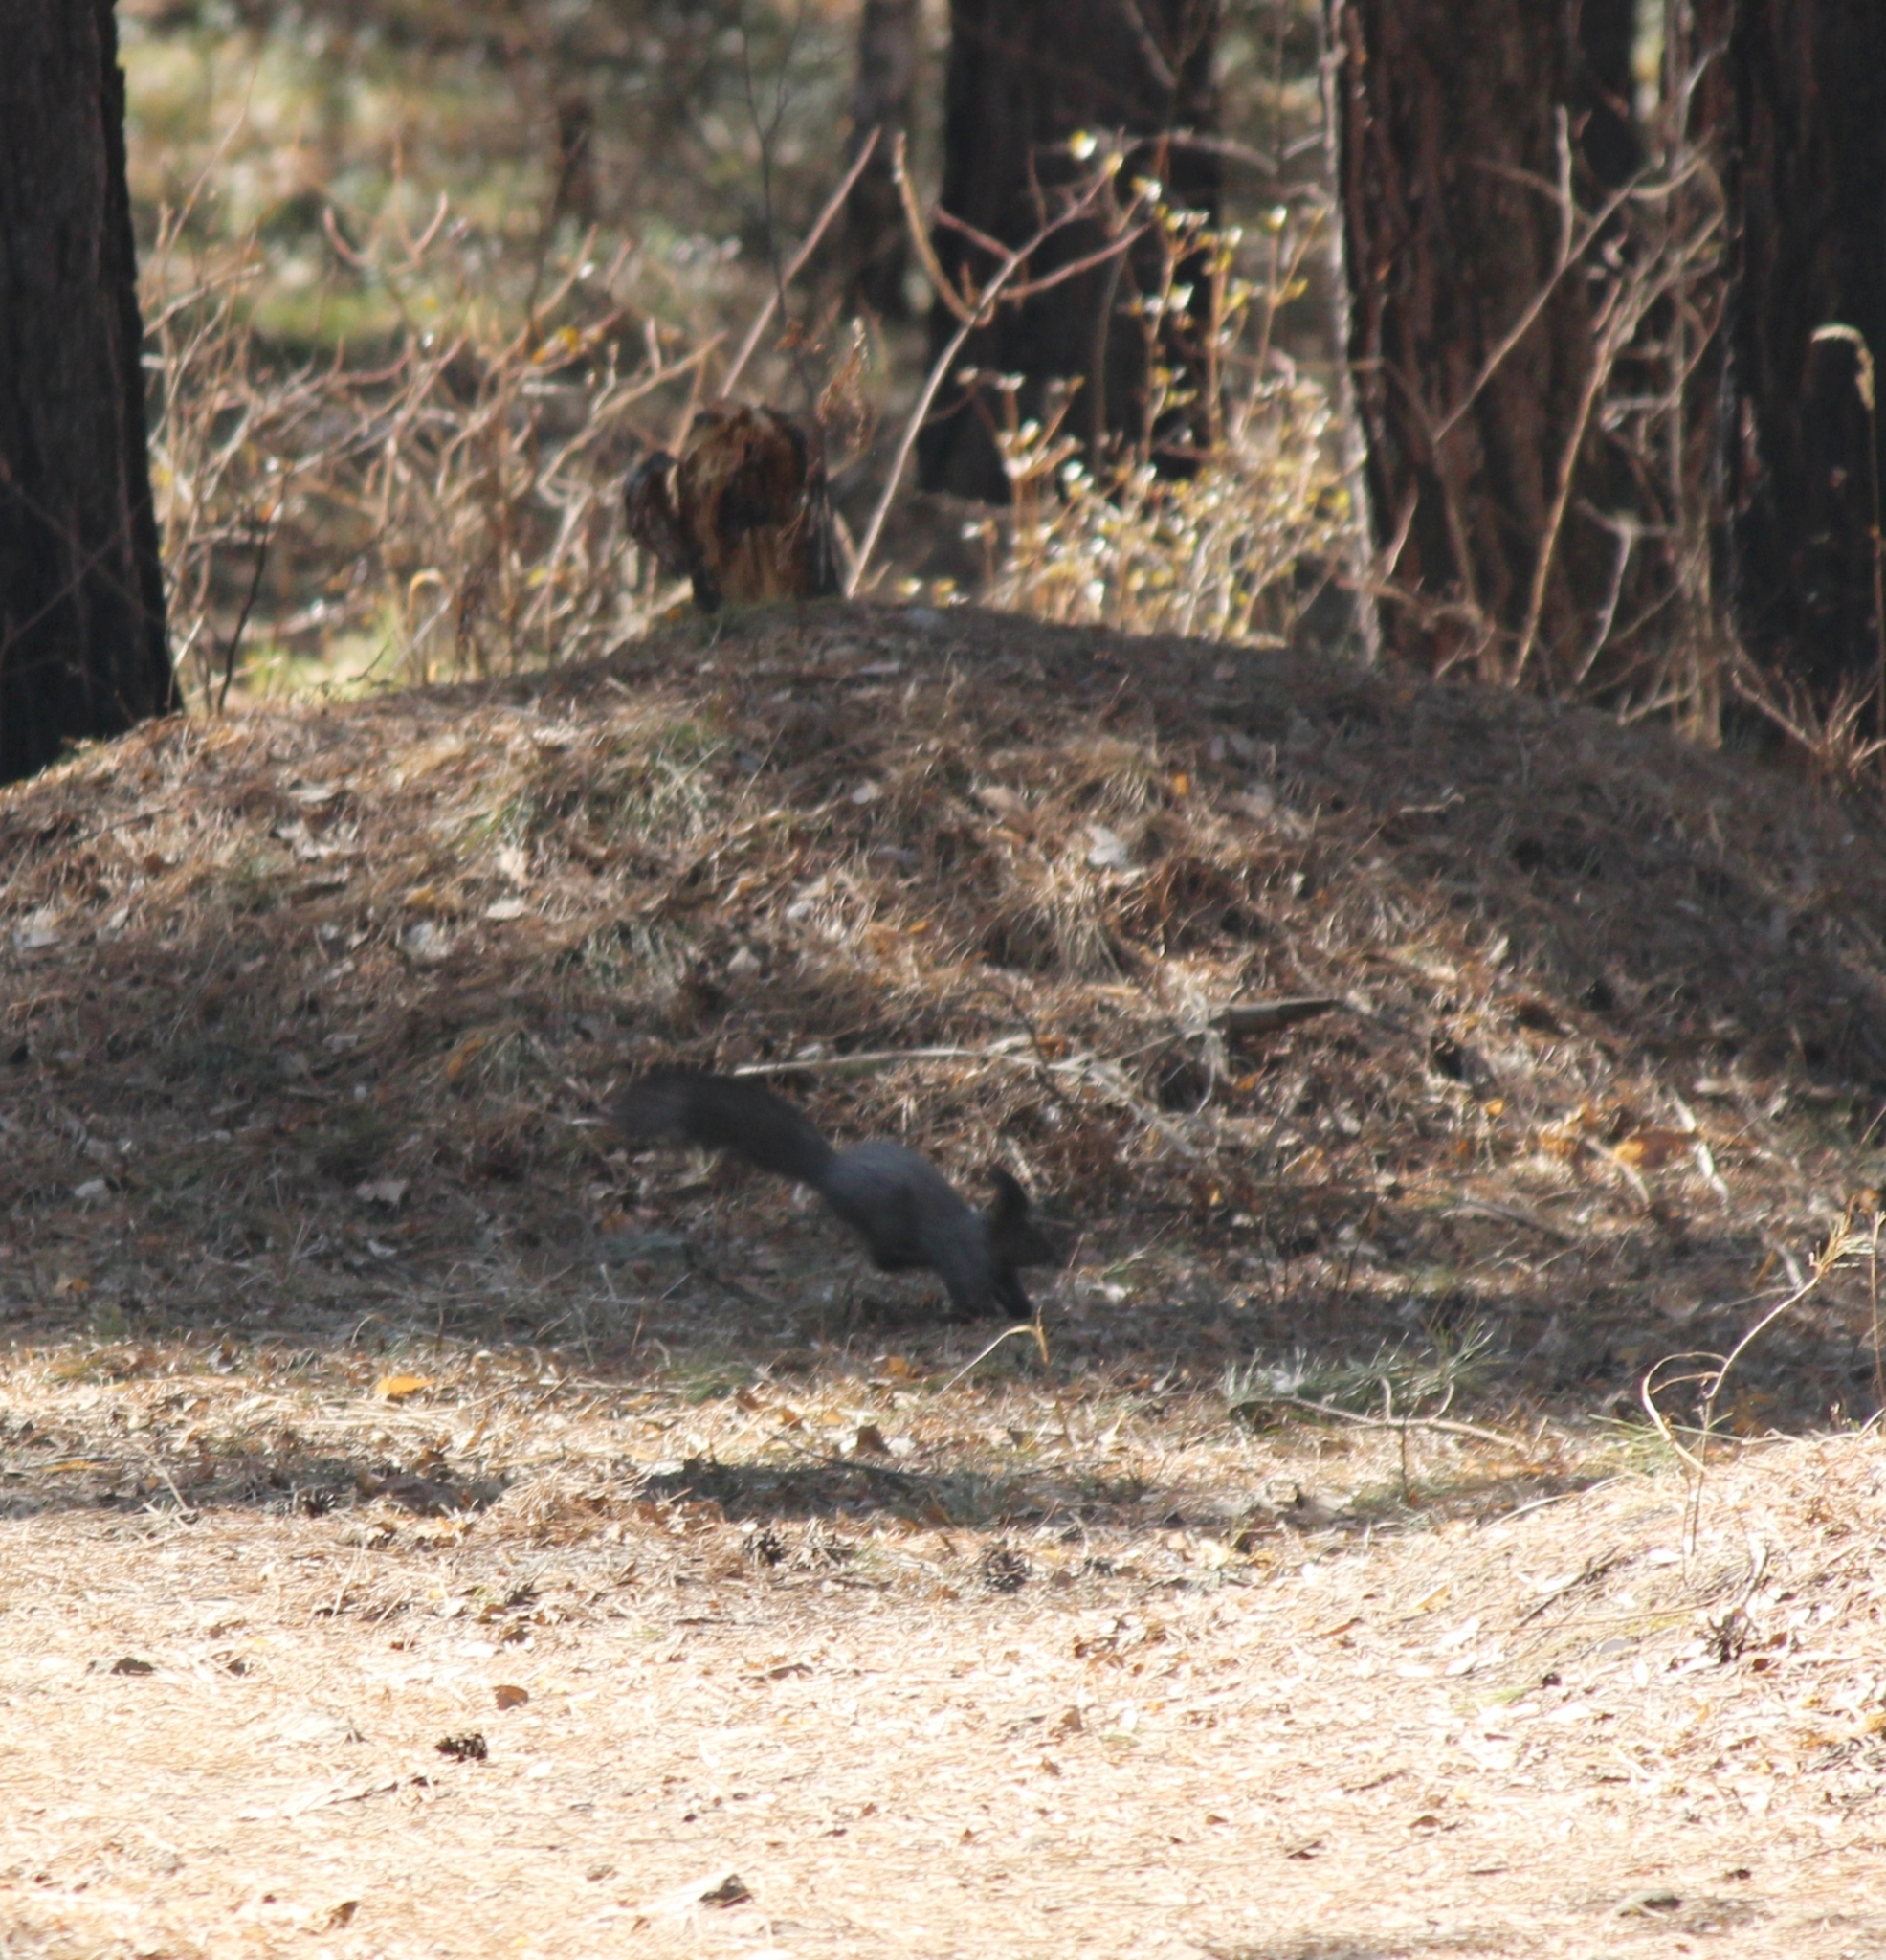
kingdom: Animalia
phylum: Chordata
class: Mammalia
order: Rodentia
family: Sciuridae
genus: Sciurus
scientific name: Sciurus vulgaris
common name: Eurasian red squirrel
